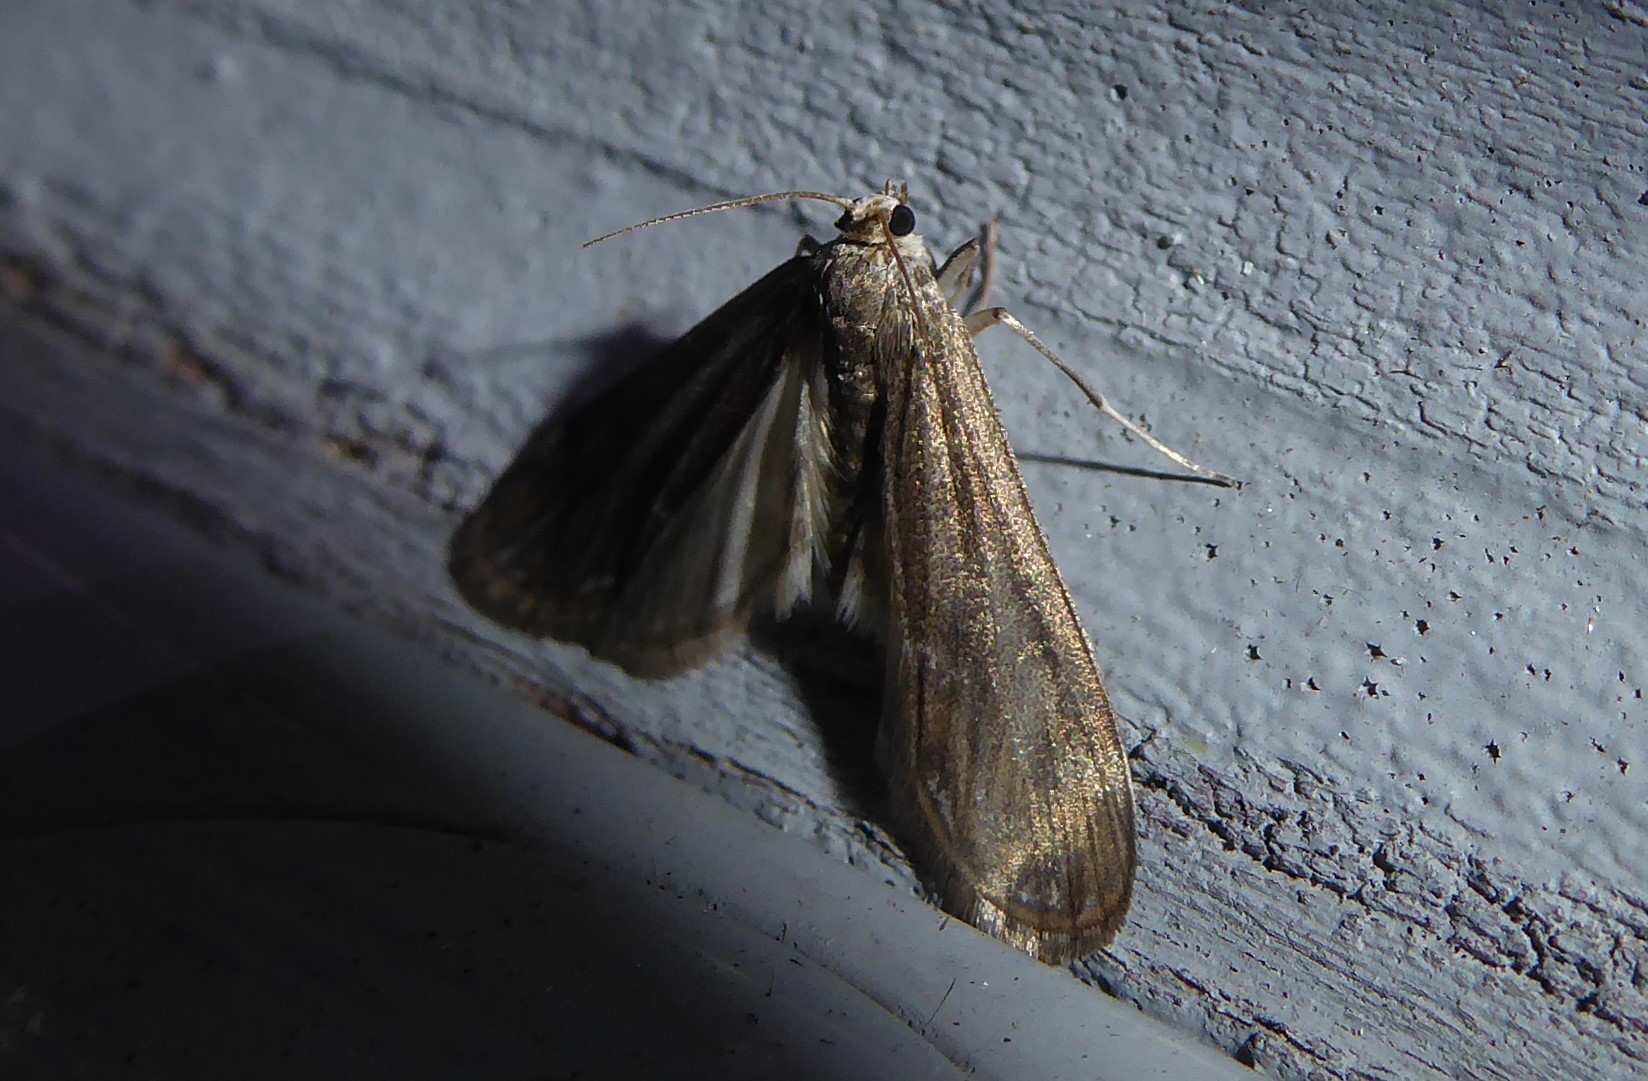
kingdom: Animalia
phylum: Arthropoda
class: Insecta
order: Lepidoptera
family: Crambidae
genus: Hygraula
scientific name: Hygraula nitens
